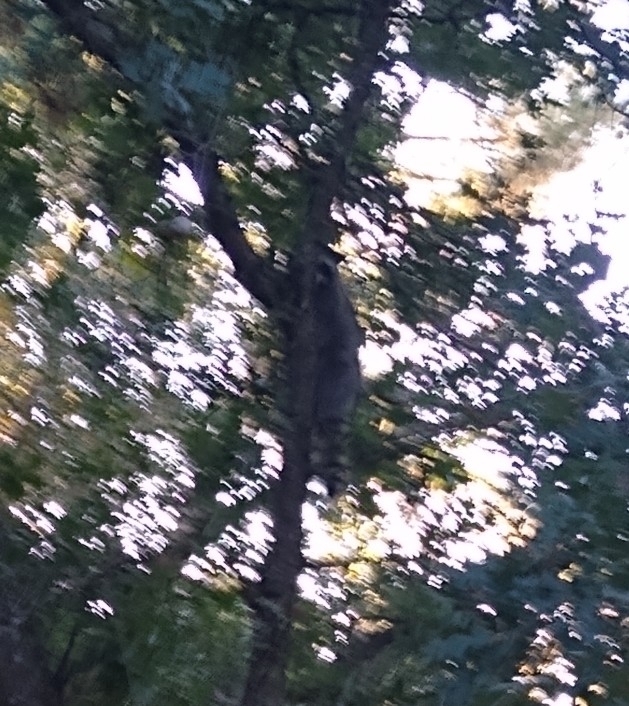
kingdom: Animalia
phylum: Chordata
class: Mammalia
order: Carnivora
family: Procyonidae
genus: Procyon
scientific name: Procyon lotor
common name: Raccoon
